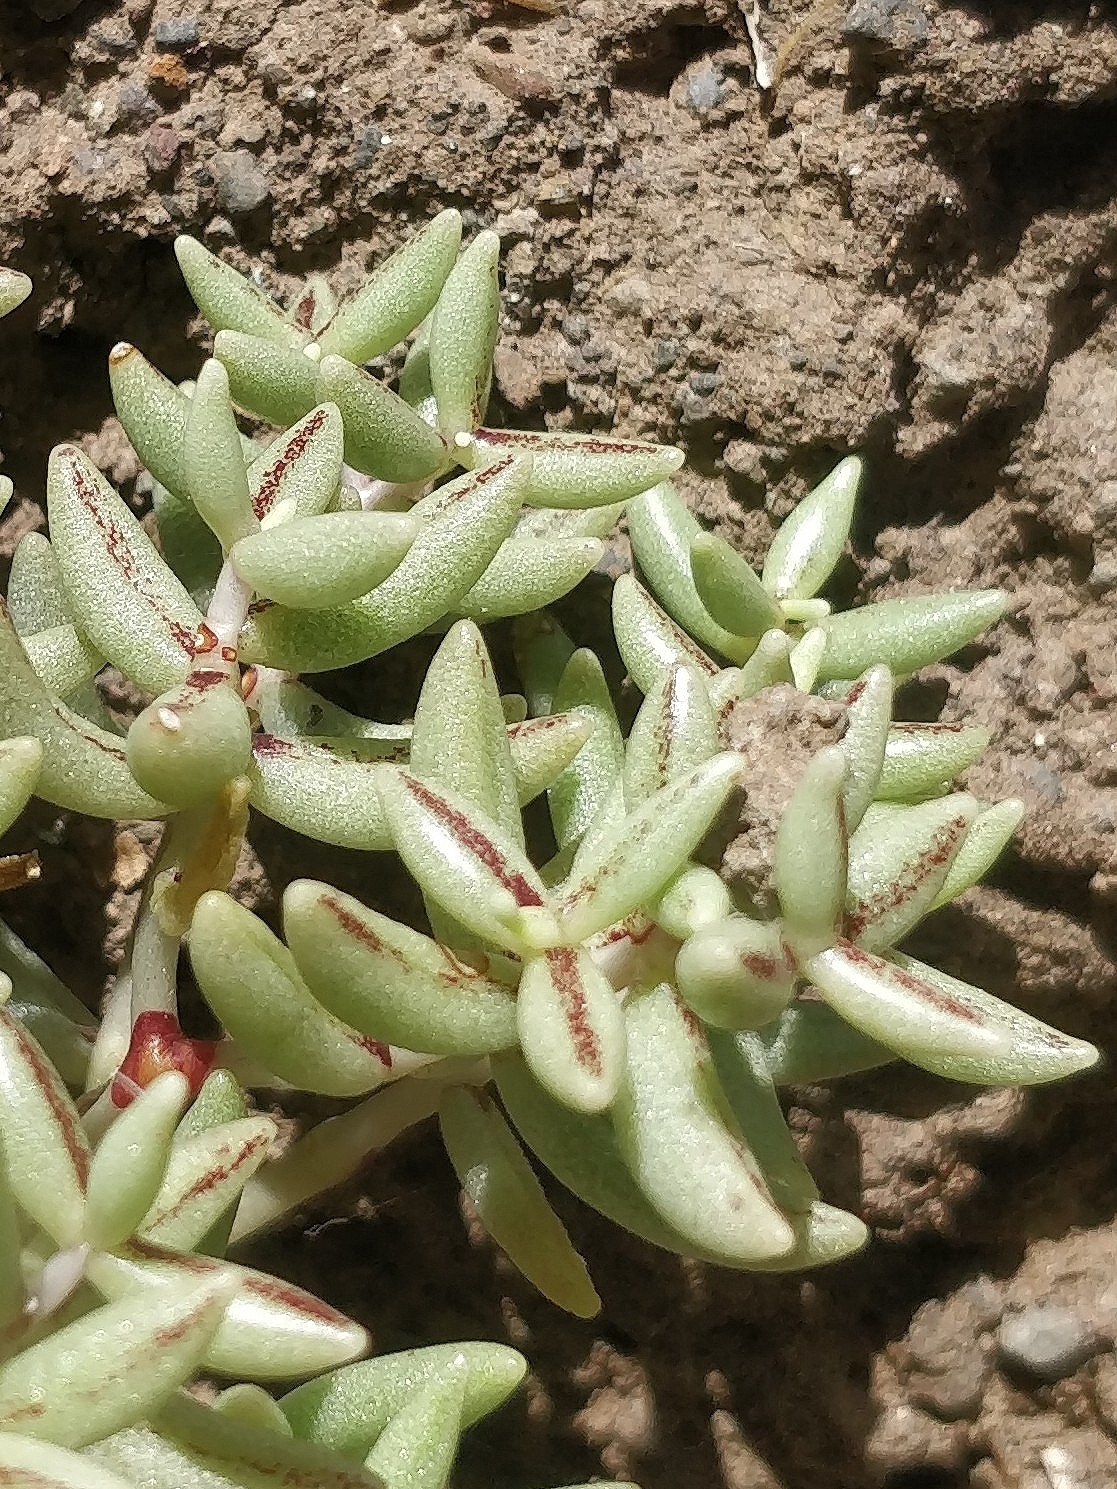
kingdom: Plantae
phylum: Tracheophyta
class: Magnoliopsida
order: Saxifragales
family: Crassulaceae
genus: Sedum
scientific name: Sedum fusiforme
